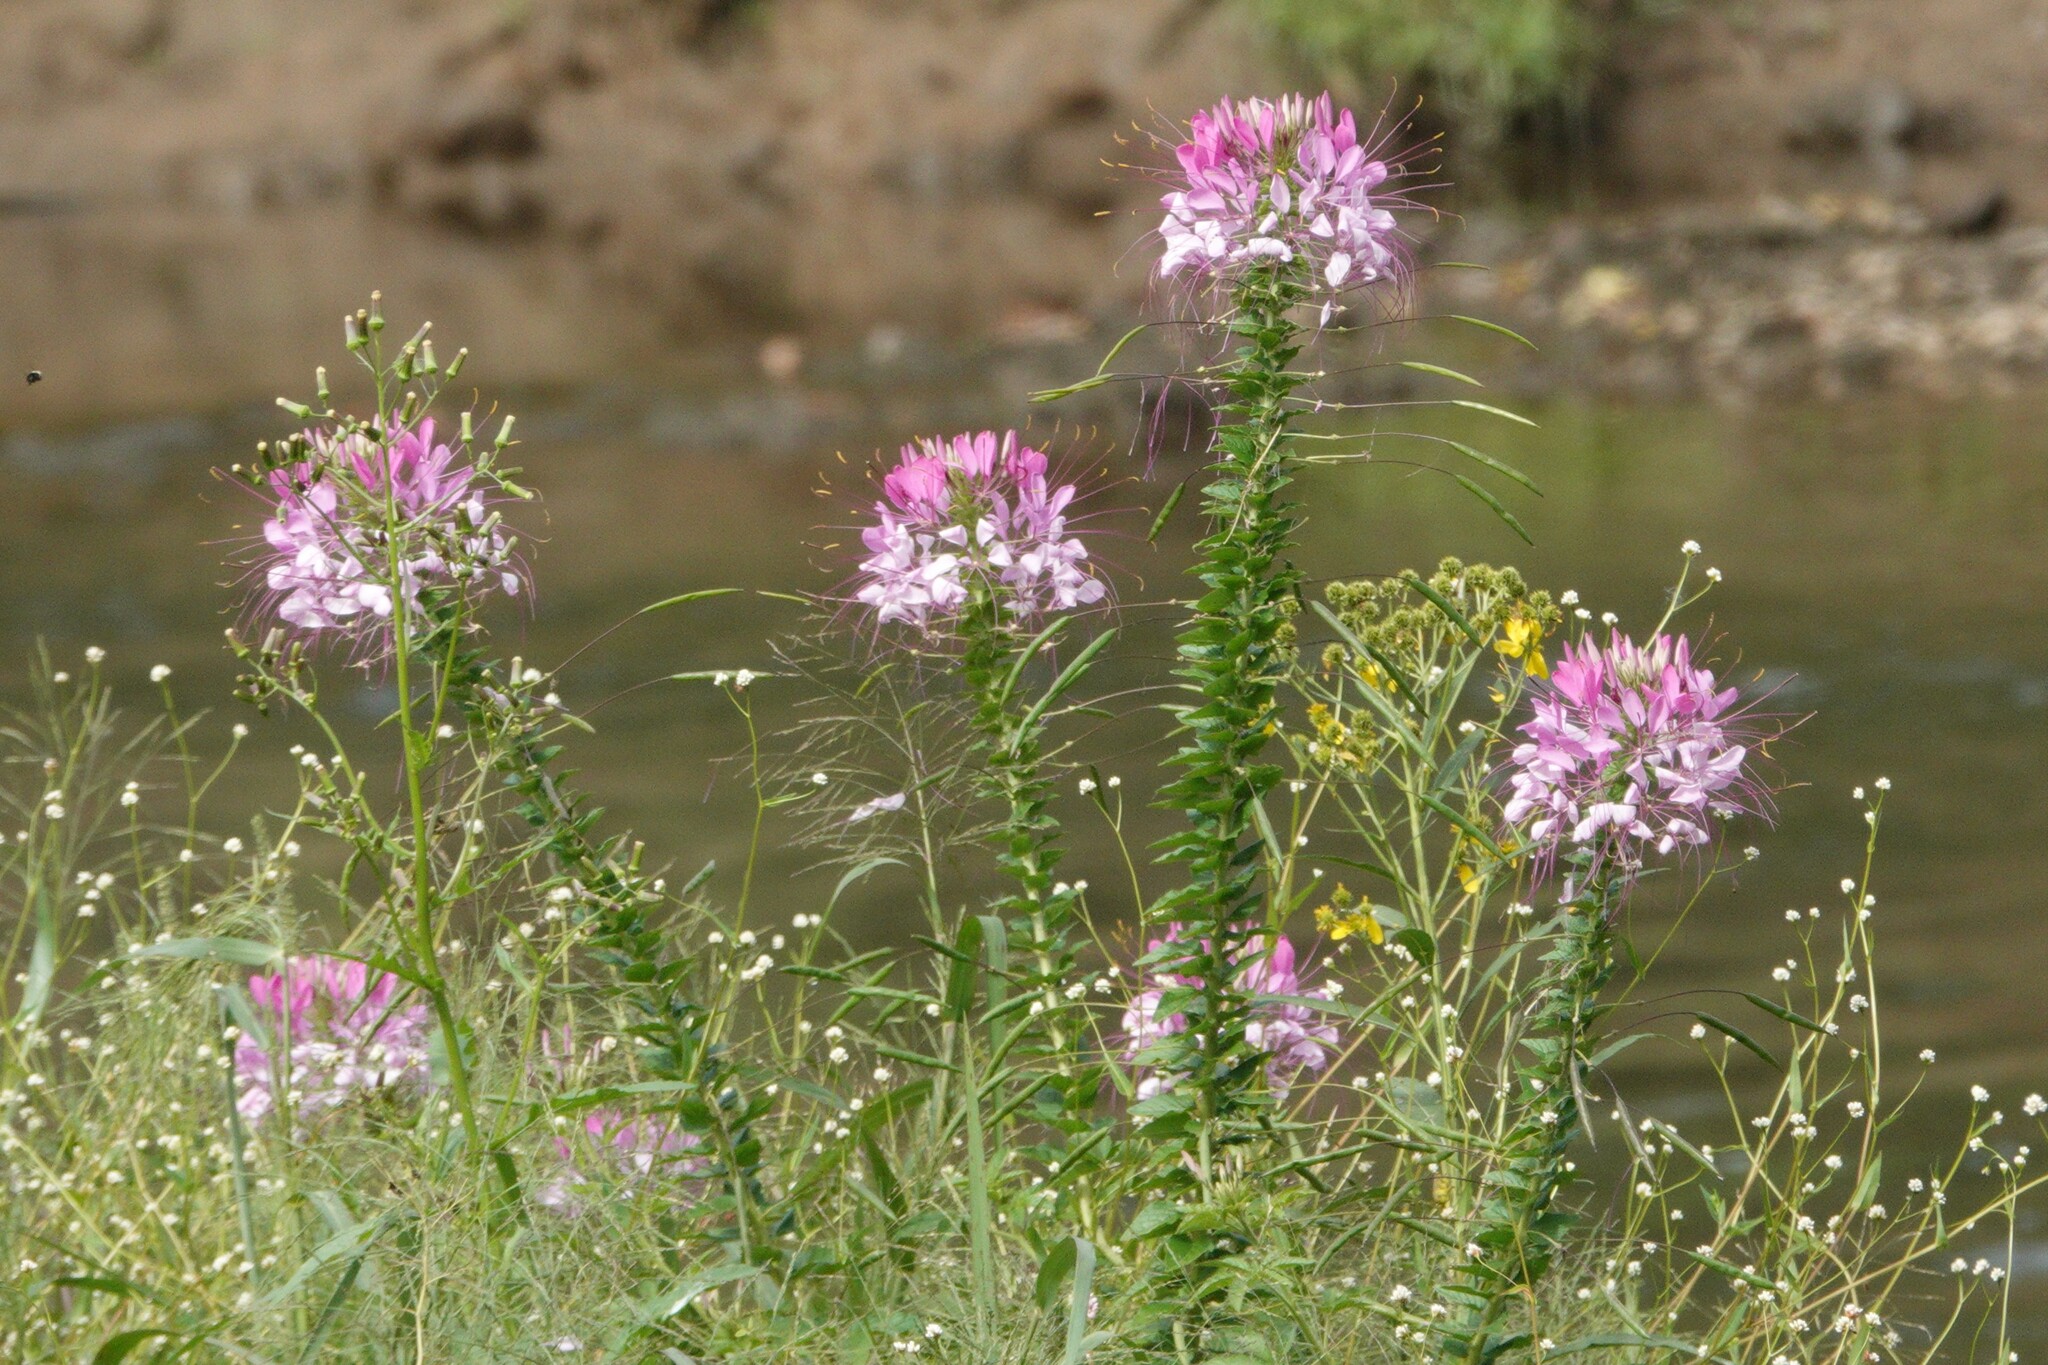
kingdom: Plantae
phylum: Tracheophyta
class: Magnoliopsida
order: Brassicales
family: Cleomaceae
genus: Tarenaya
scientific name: Tarenaya houtteana
